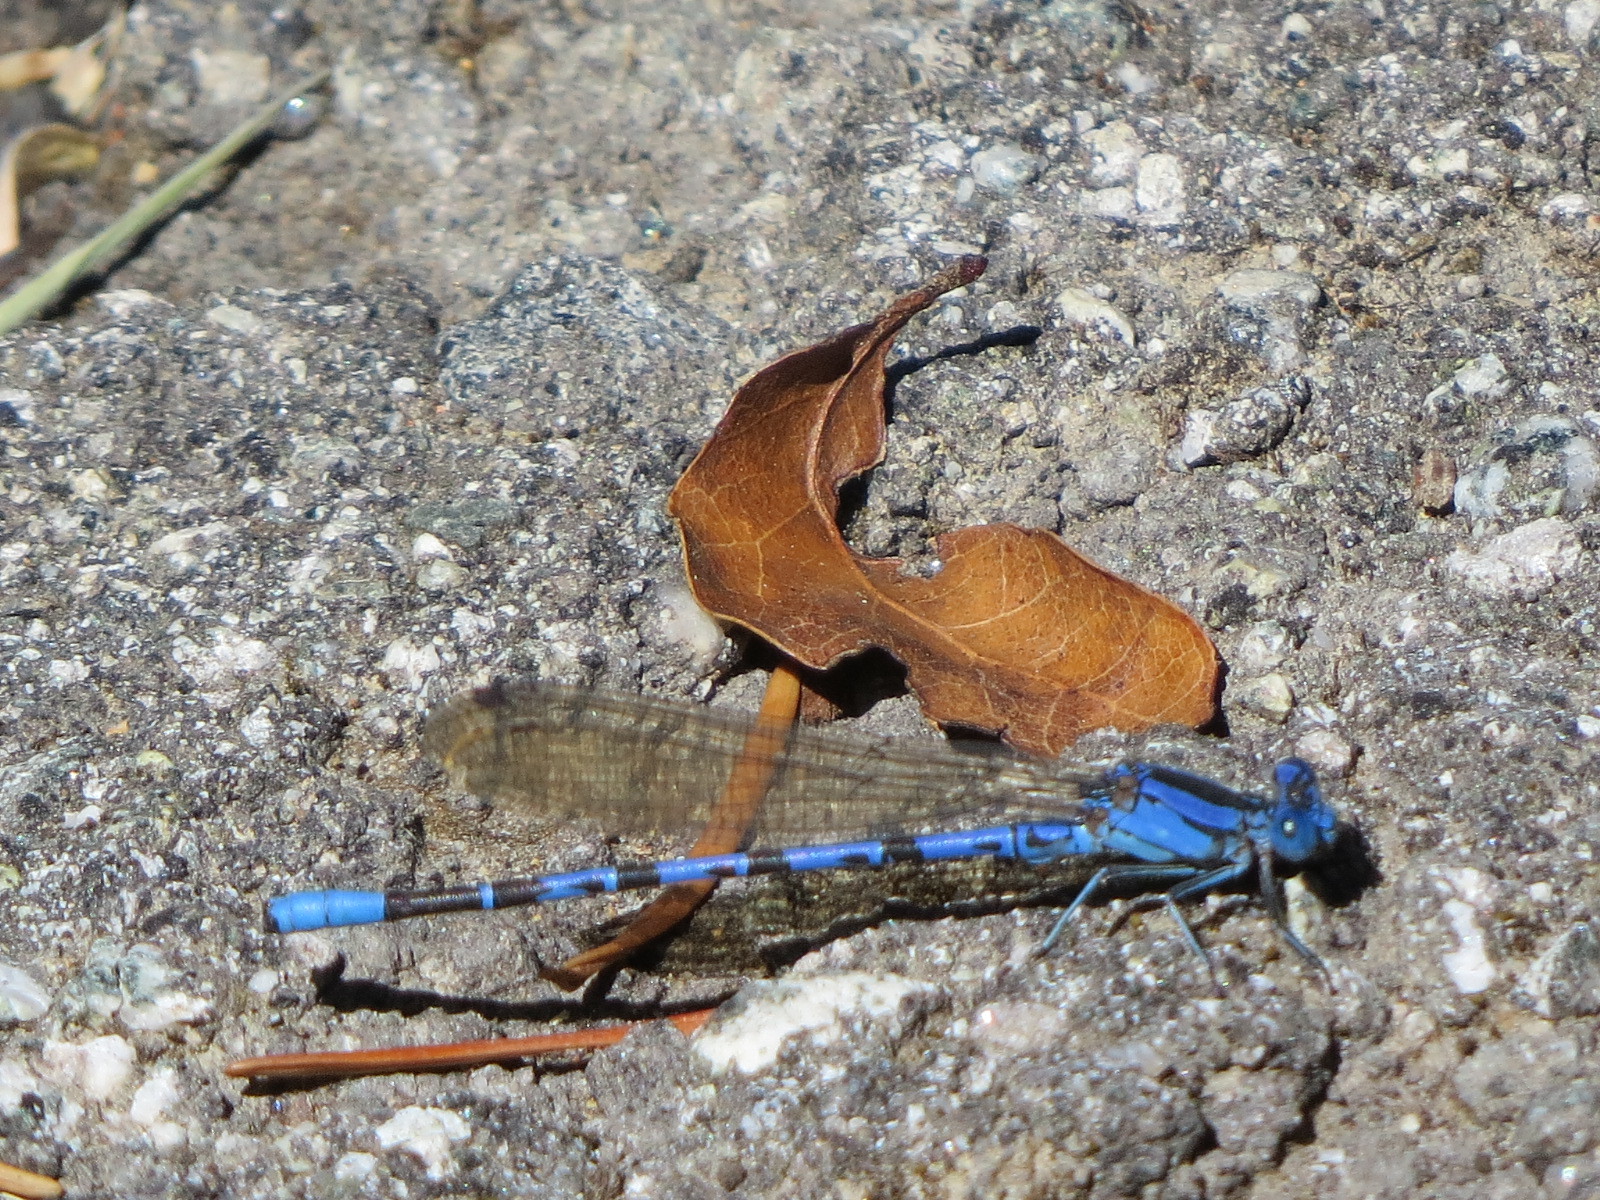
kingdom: Animalia
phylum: Arthropoda
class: Insecta
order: Odonata
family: Coenagrionidae
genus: Argia
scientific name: Argia vivida
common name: Vivid dancer
